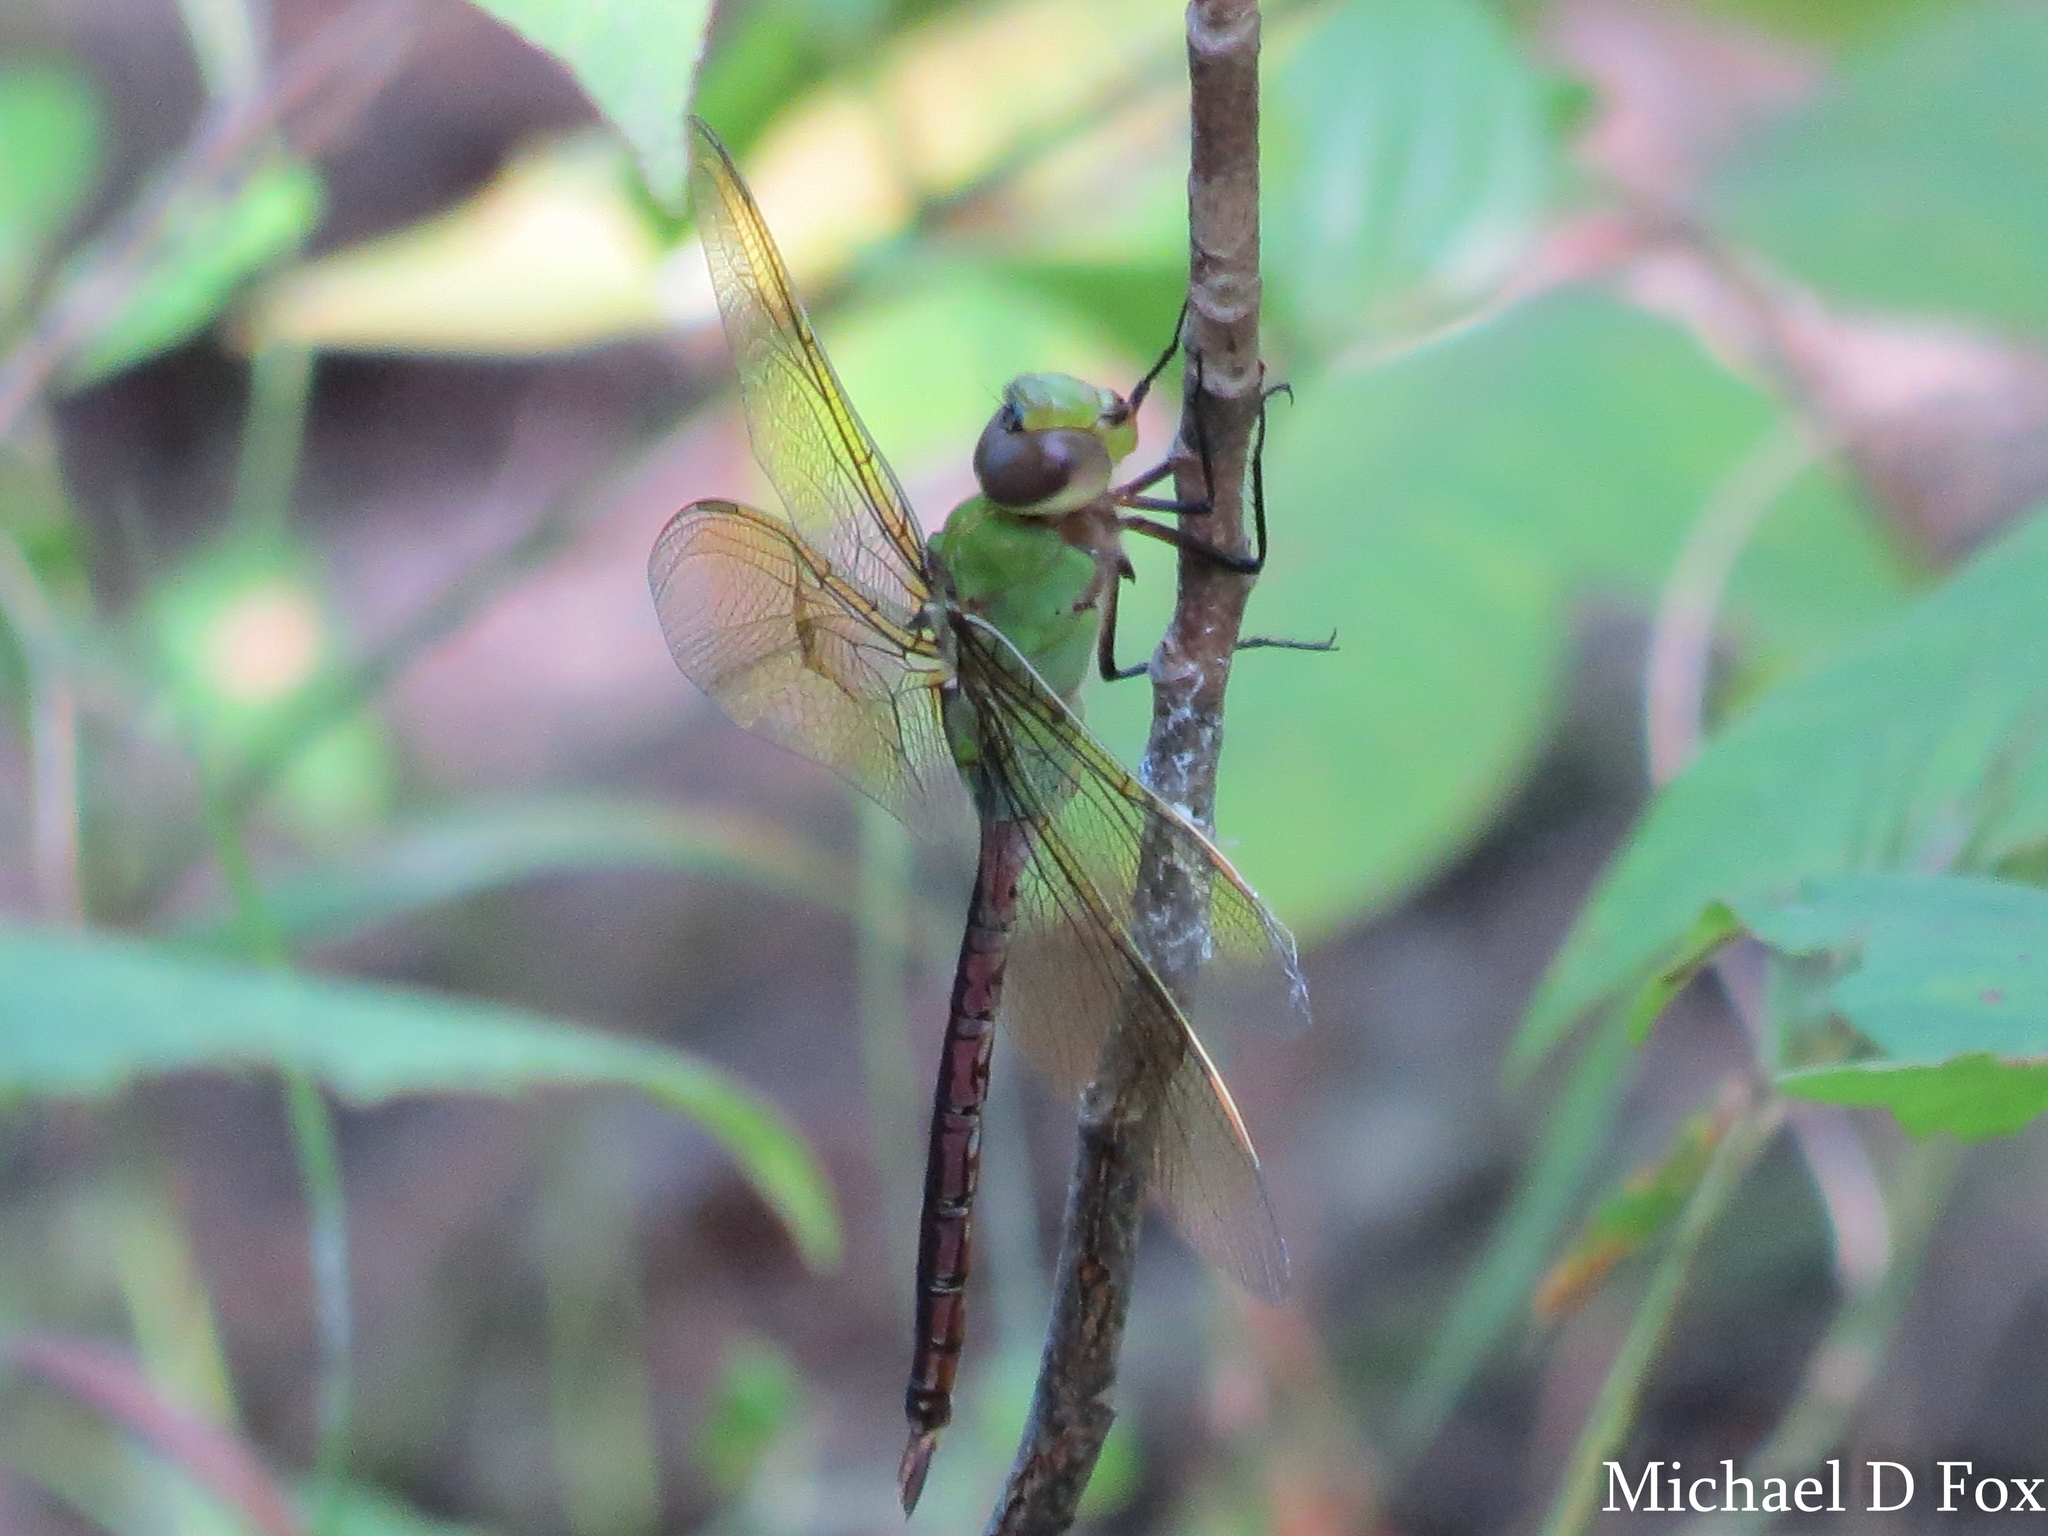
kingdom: Animalia
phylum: Arthropoda
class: Insecta
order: Odonata
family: Aeshnidae
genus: Anax
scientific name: Anax junius
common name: Common green darner
